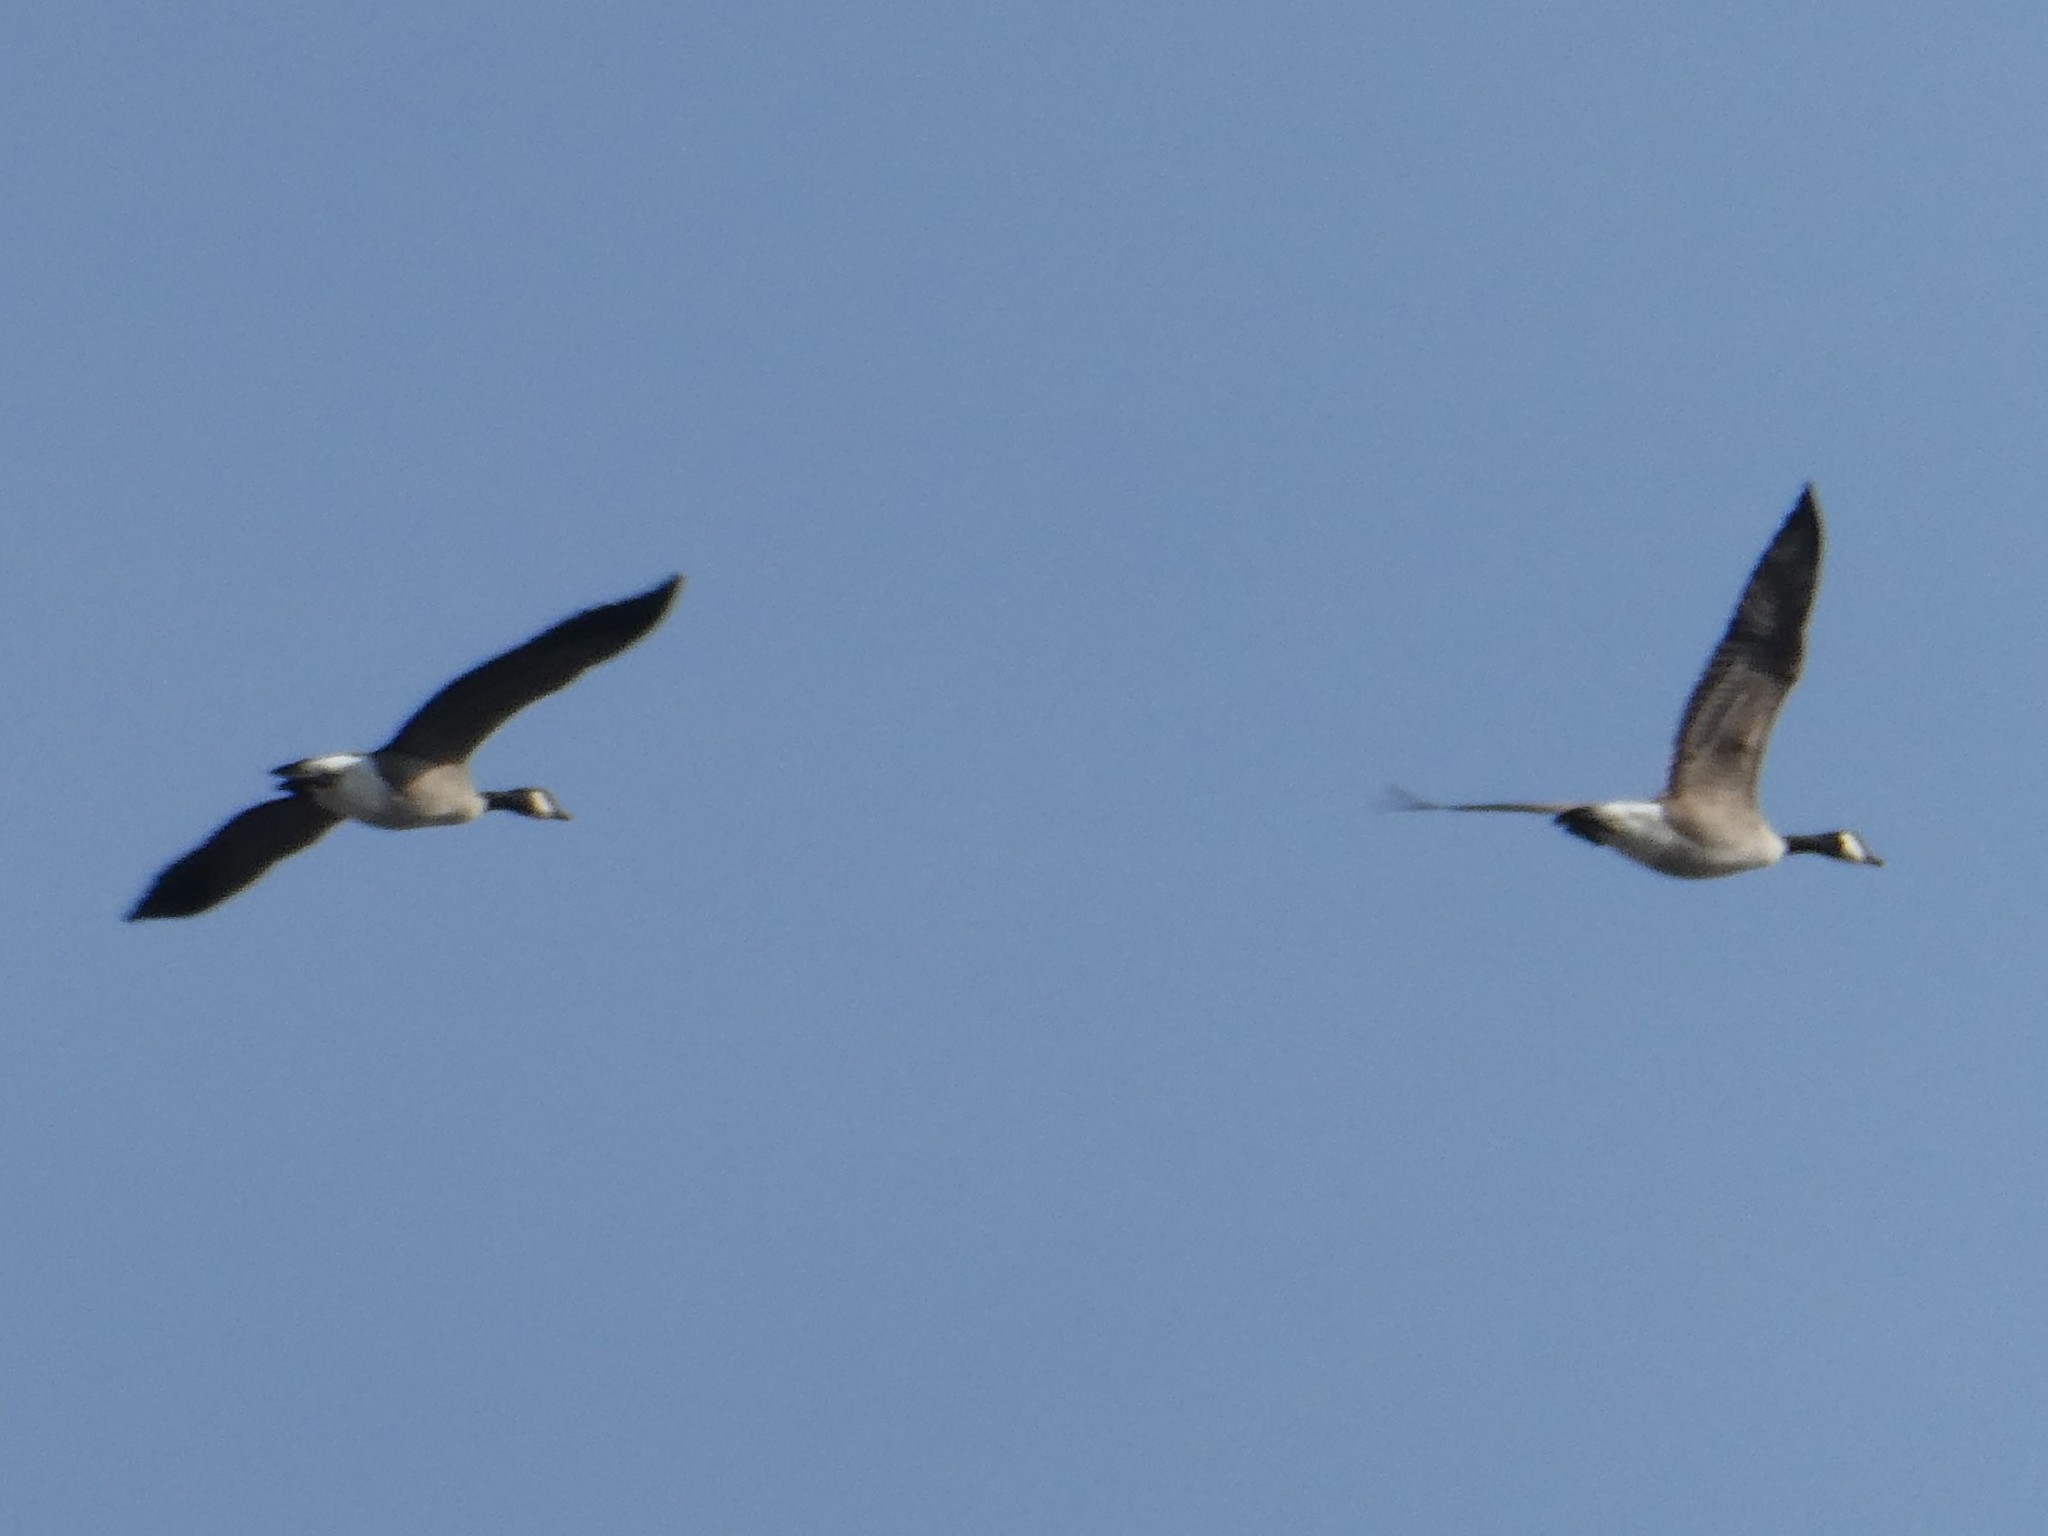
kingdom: Animalia
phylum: Chordata
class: Aves
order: Anseriformes
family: Anatidae
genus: Branta
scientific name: Branta canadensis
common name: Canada goose
